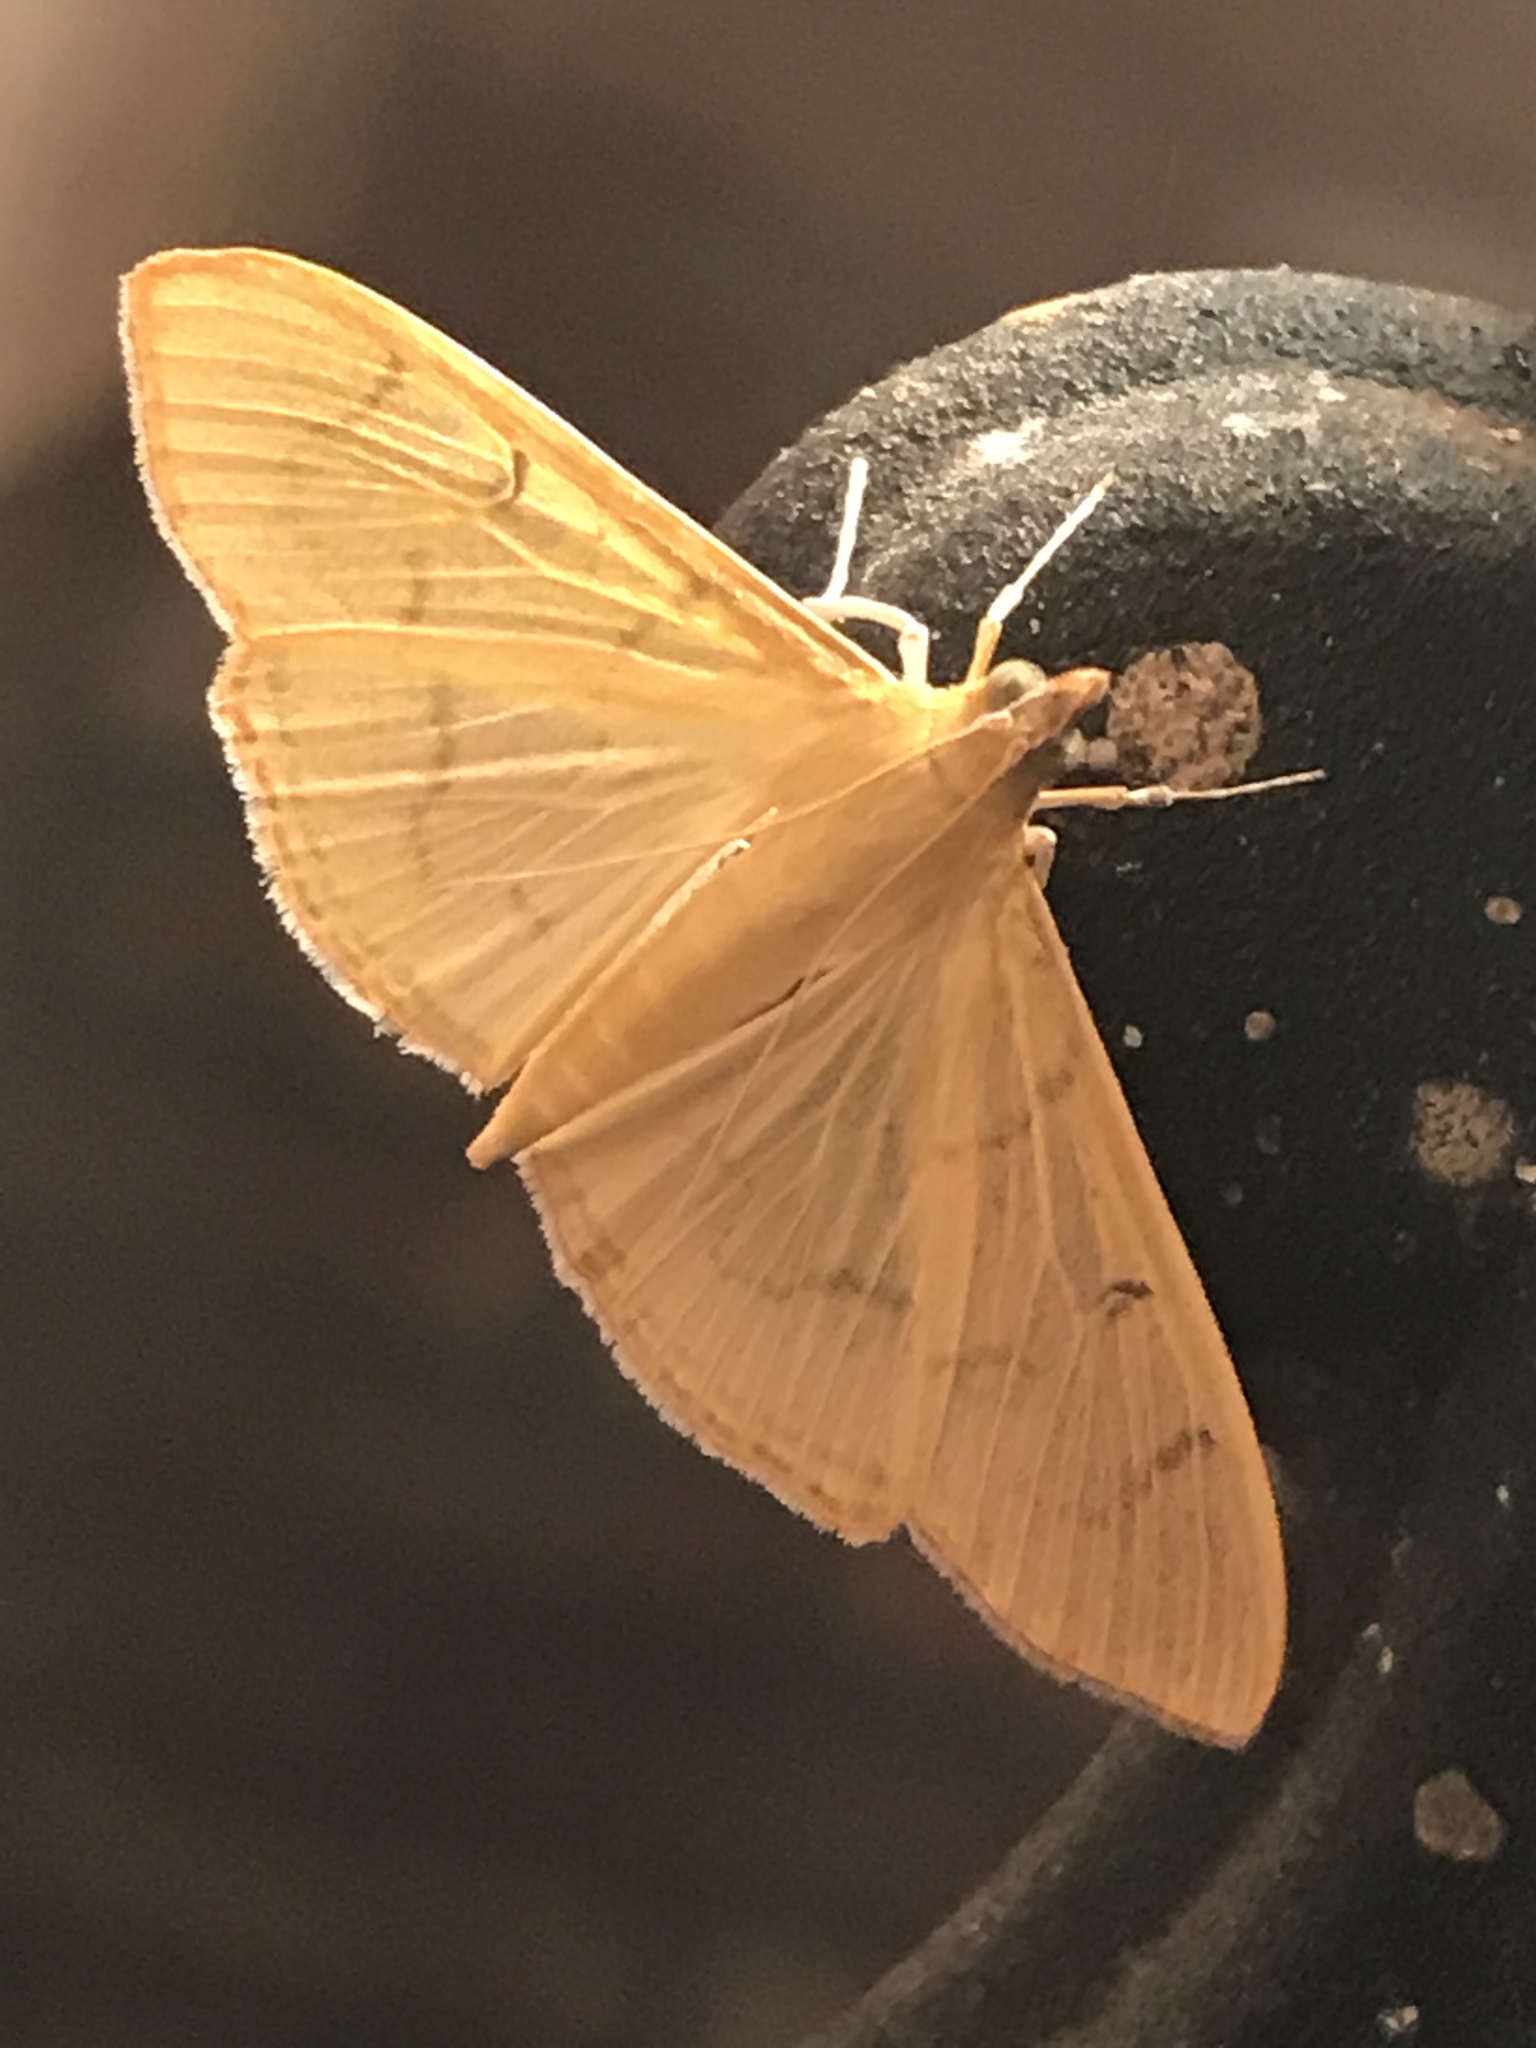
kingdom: Animalia
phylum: Arthropoda
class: Insecta
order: Lepidoptera
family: Crambidae
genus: Condylorrhiza
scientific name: Condylorrhiza vestigialis
